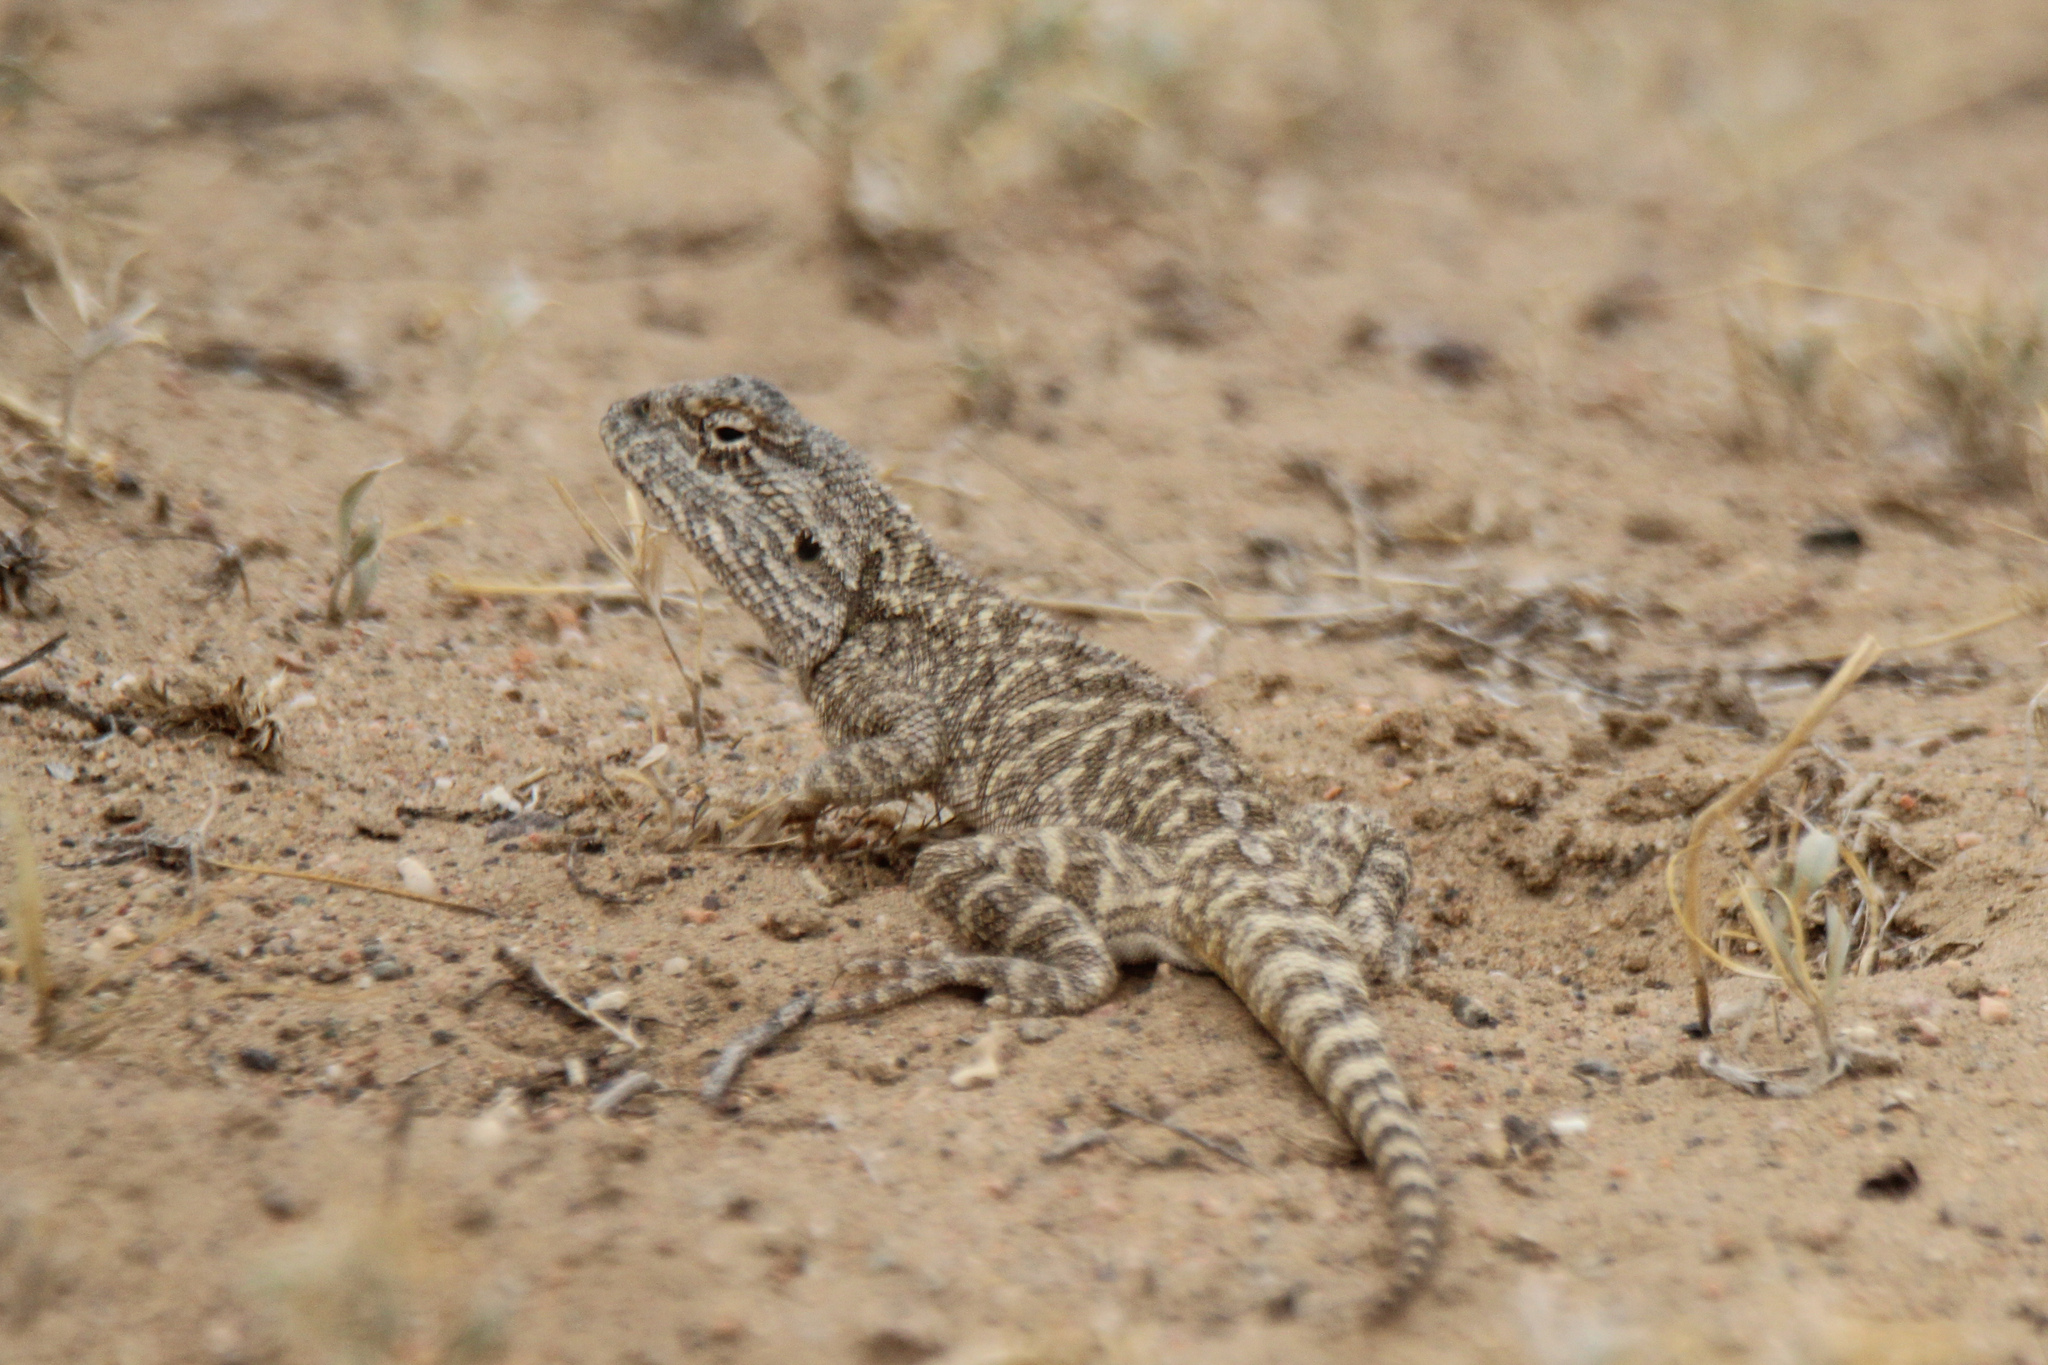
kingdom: Animalia
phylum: Chordata
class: Squamata
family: Agamidae
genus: Trapelus
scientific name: Trapelus sanguinolentus
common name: Steppe agama
